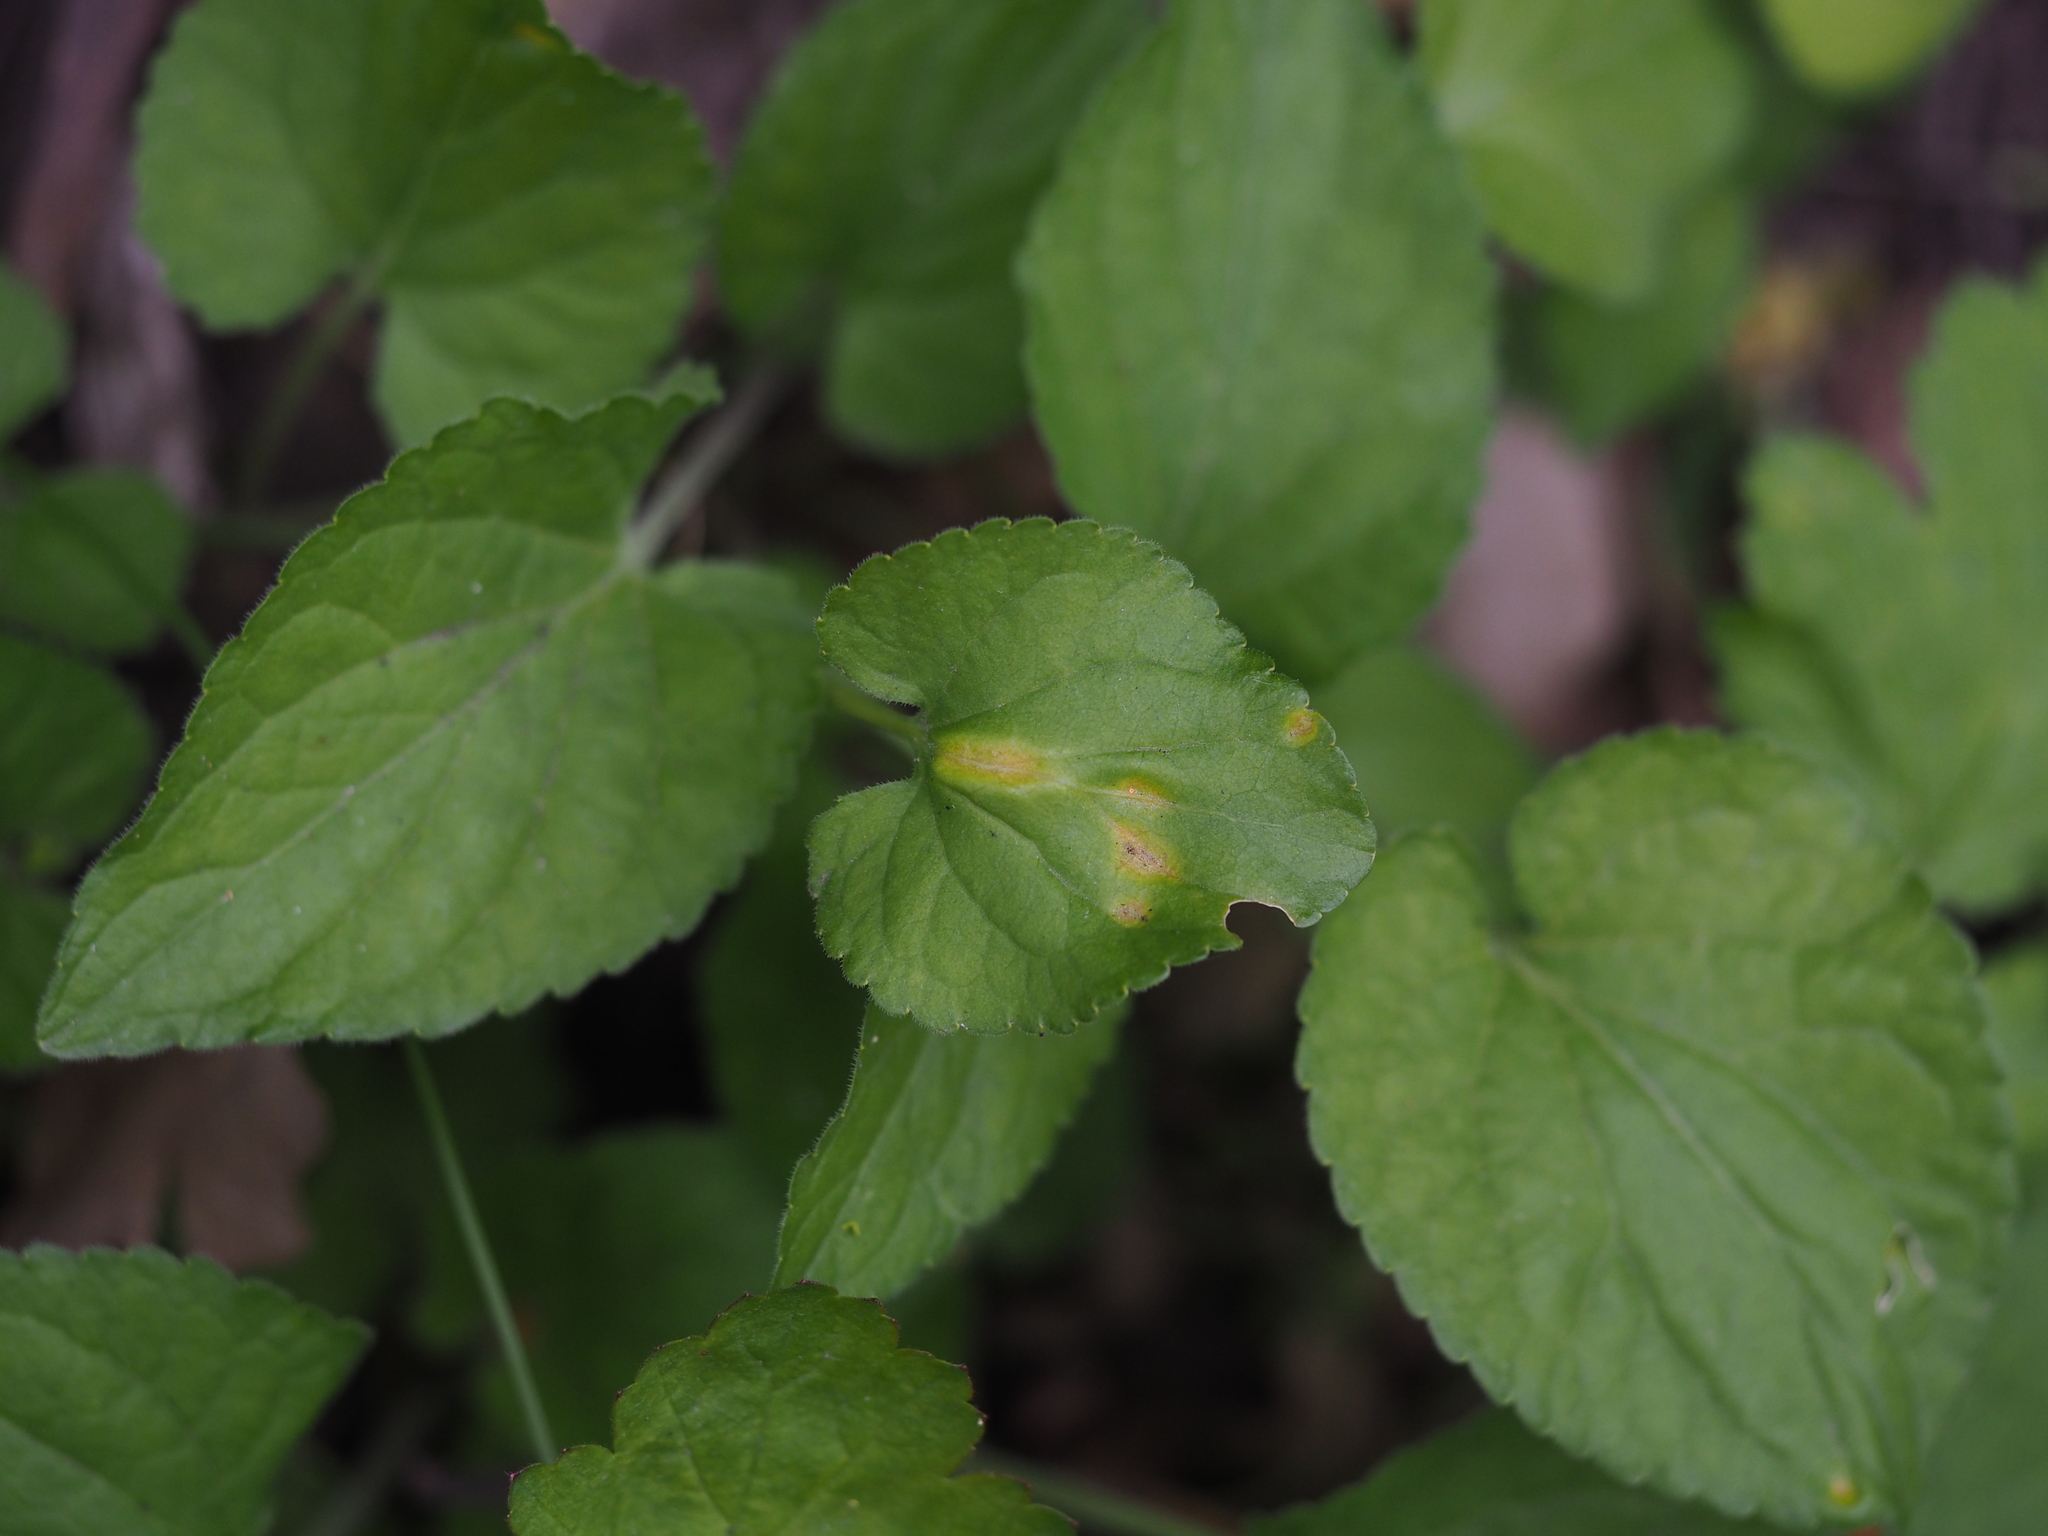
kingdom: Fungi
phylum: Basidiomycota
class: Pucciniomycetes
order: Pucciniales
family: Pucciniaceae
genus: Puccinia
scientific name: Puccinia violae
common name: Violet rust
